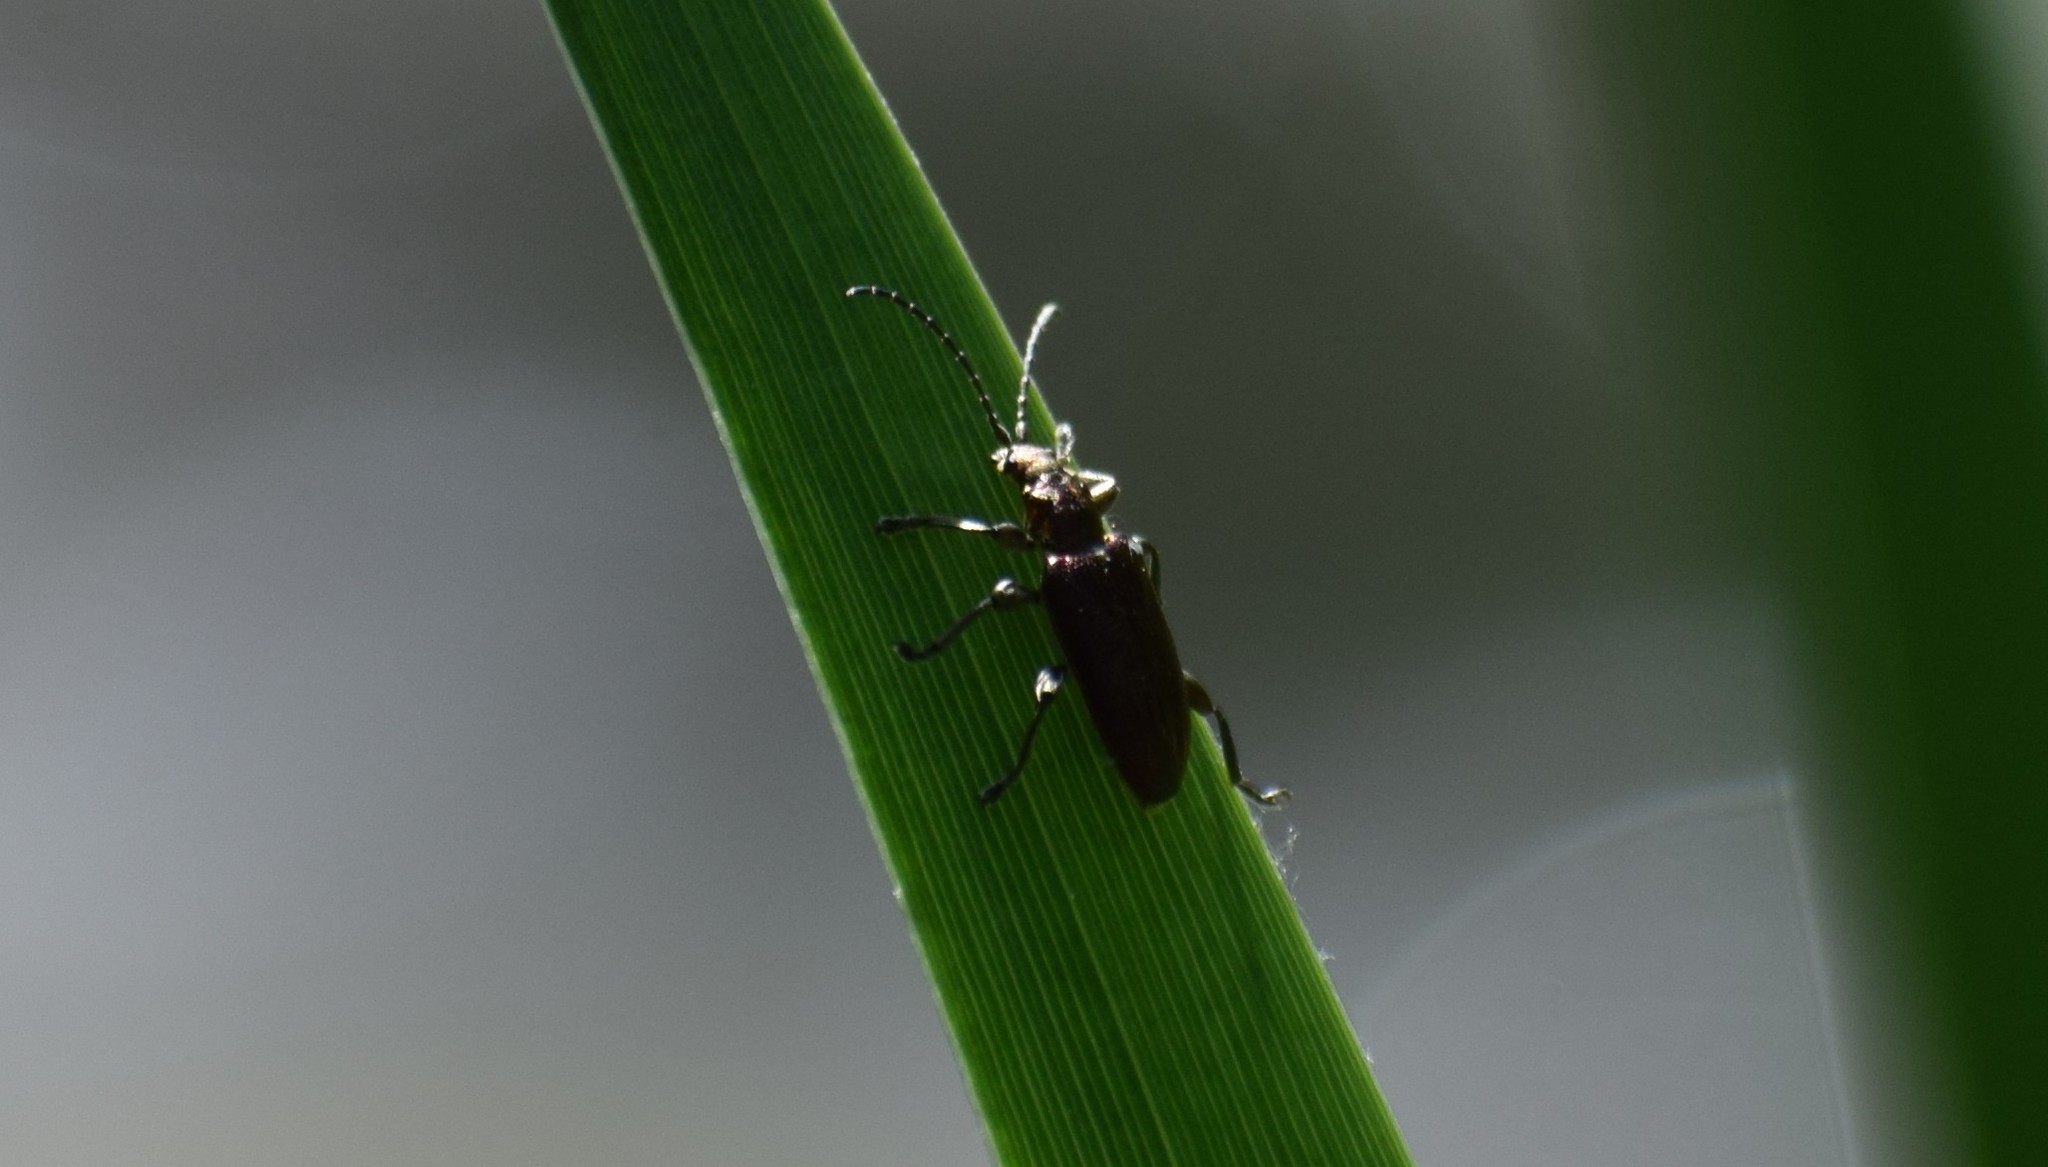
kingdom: Animalia
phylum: Arthropoda
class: Insecta
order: Coleoptera
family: Chrysomelidae
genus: Plateumaris
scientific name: Plateumaris sericea
